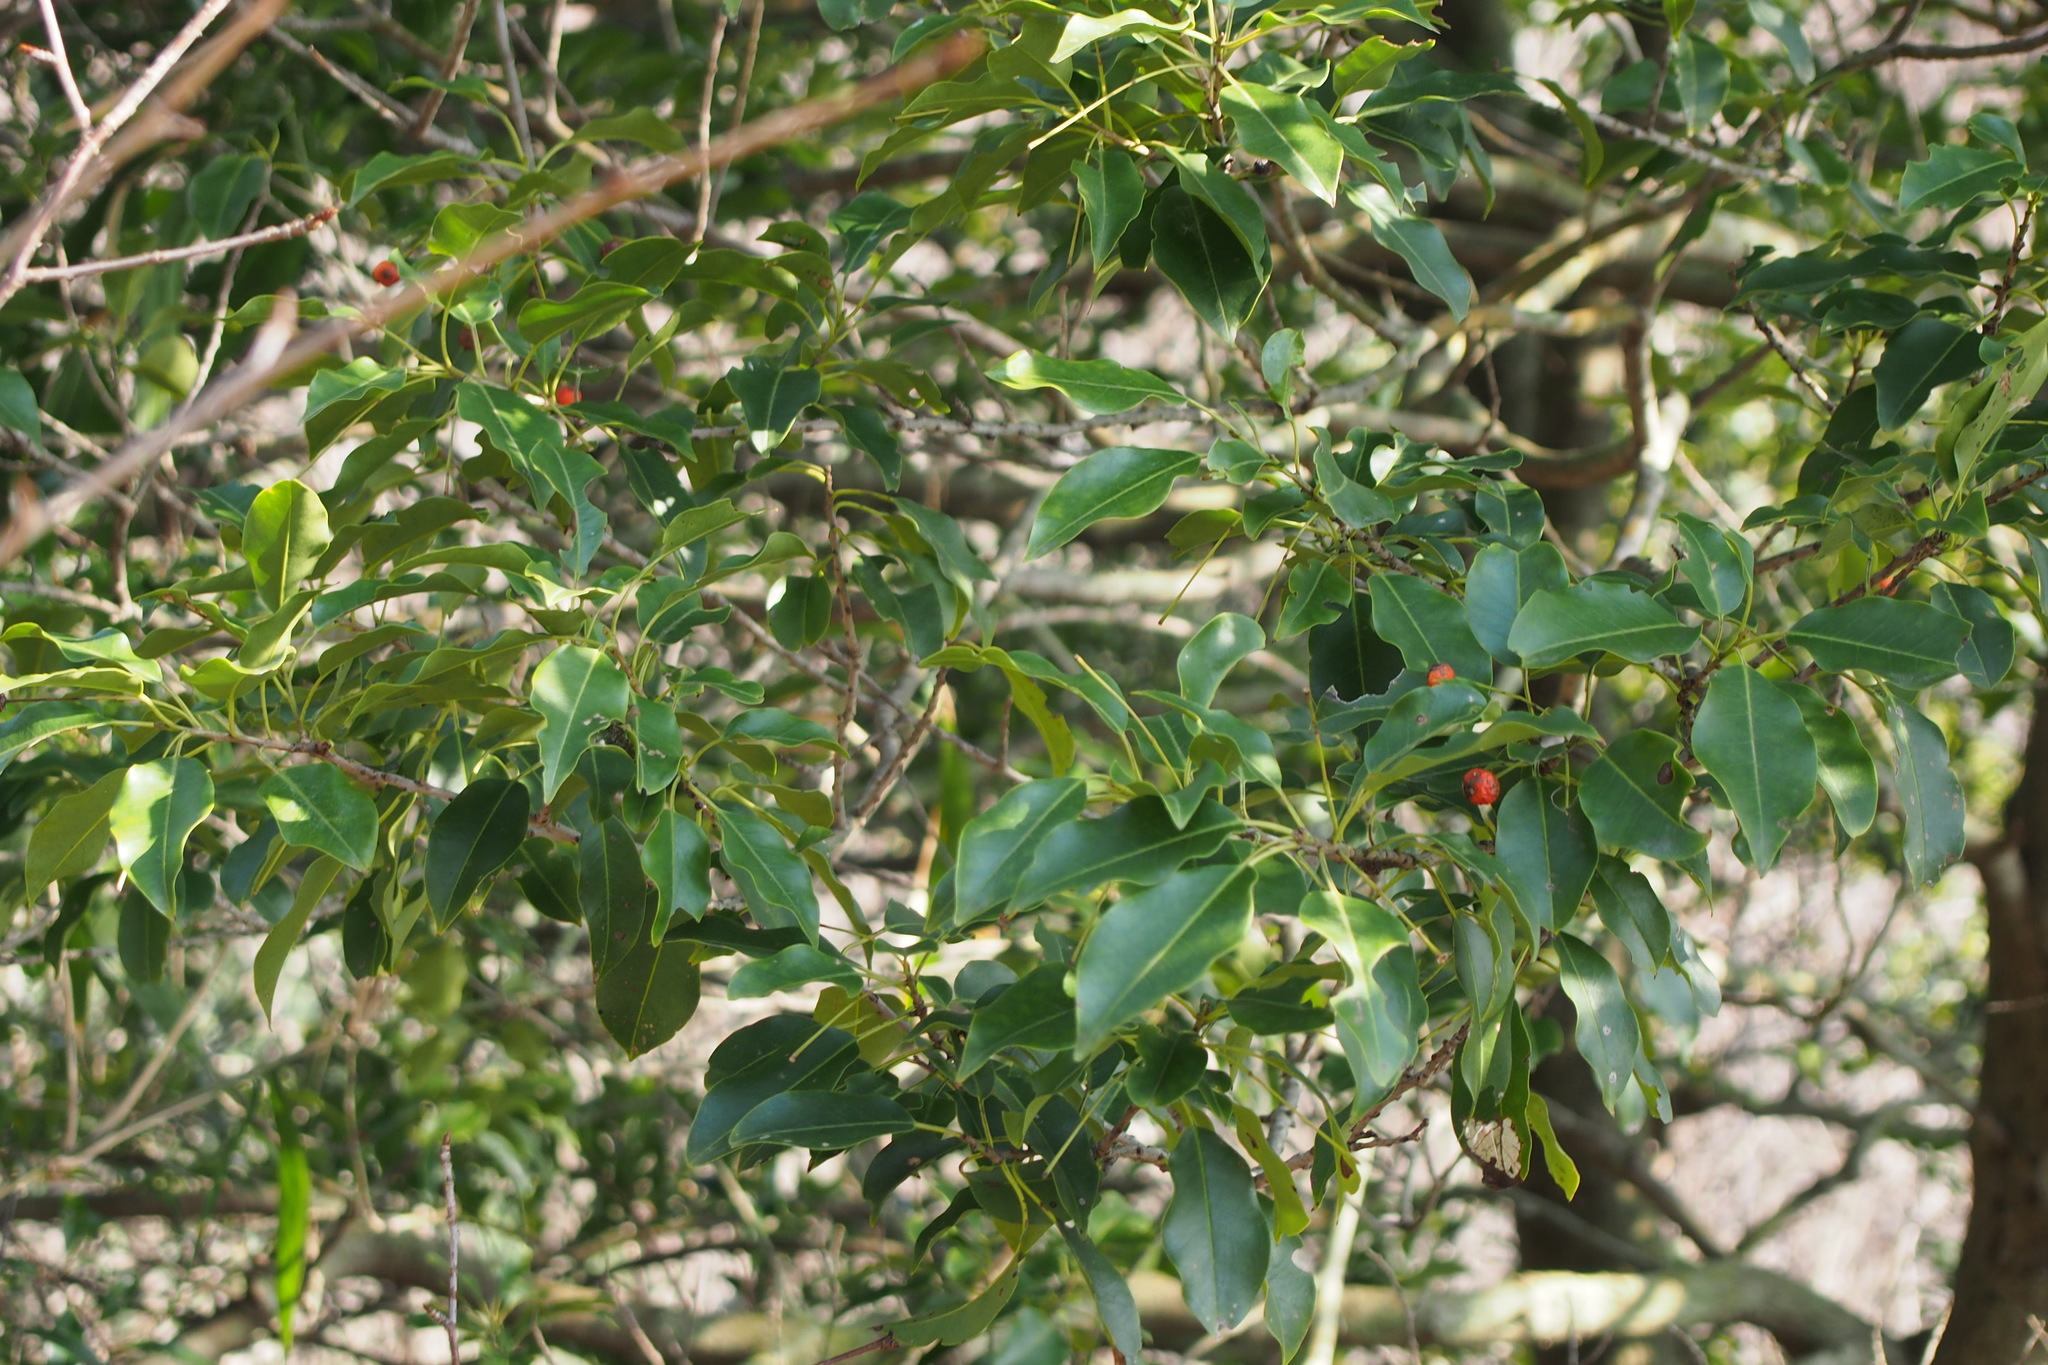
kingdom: Plantae
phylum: Tracheophyta
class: Magnoliopsida
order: Aquifoliales
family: Aquifoliaceae
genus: Ilex
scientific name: Ilex pedunculosa
